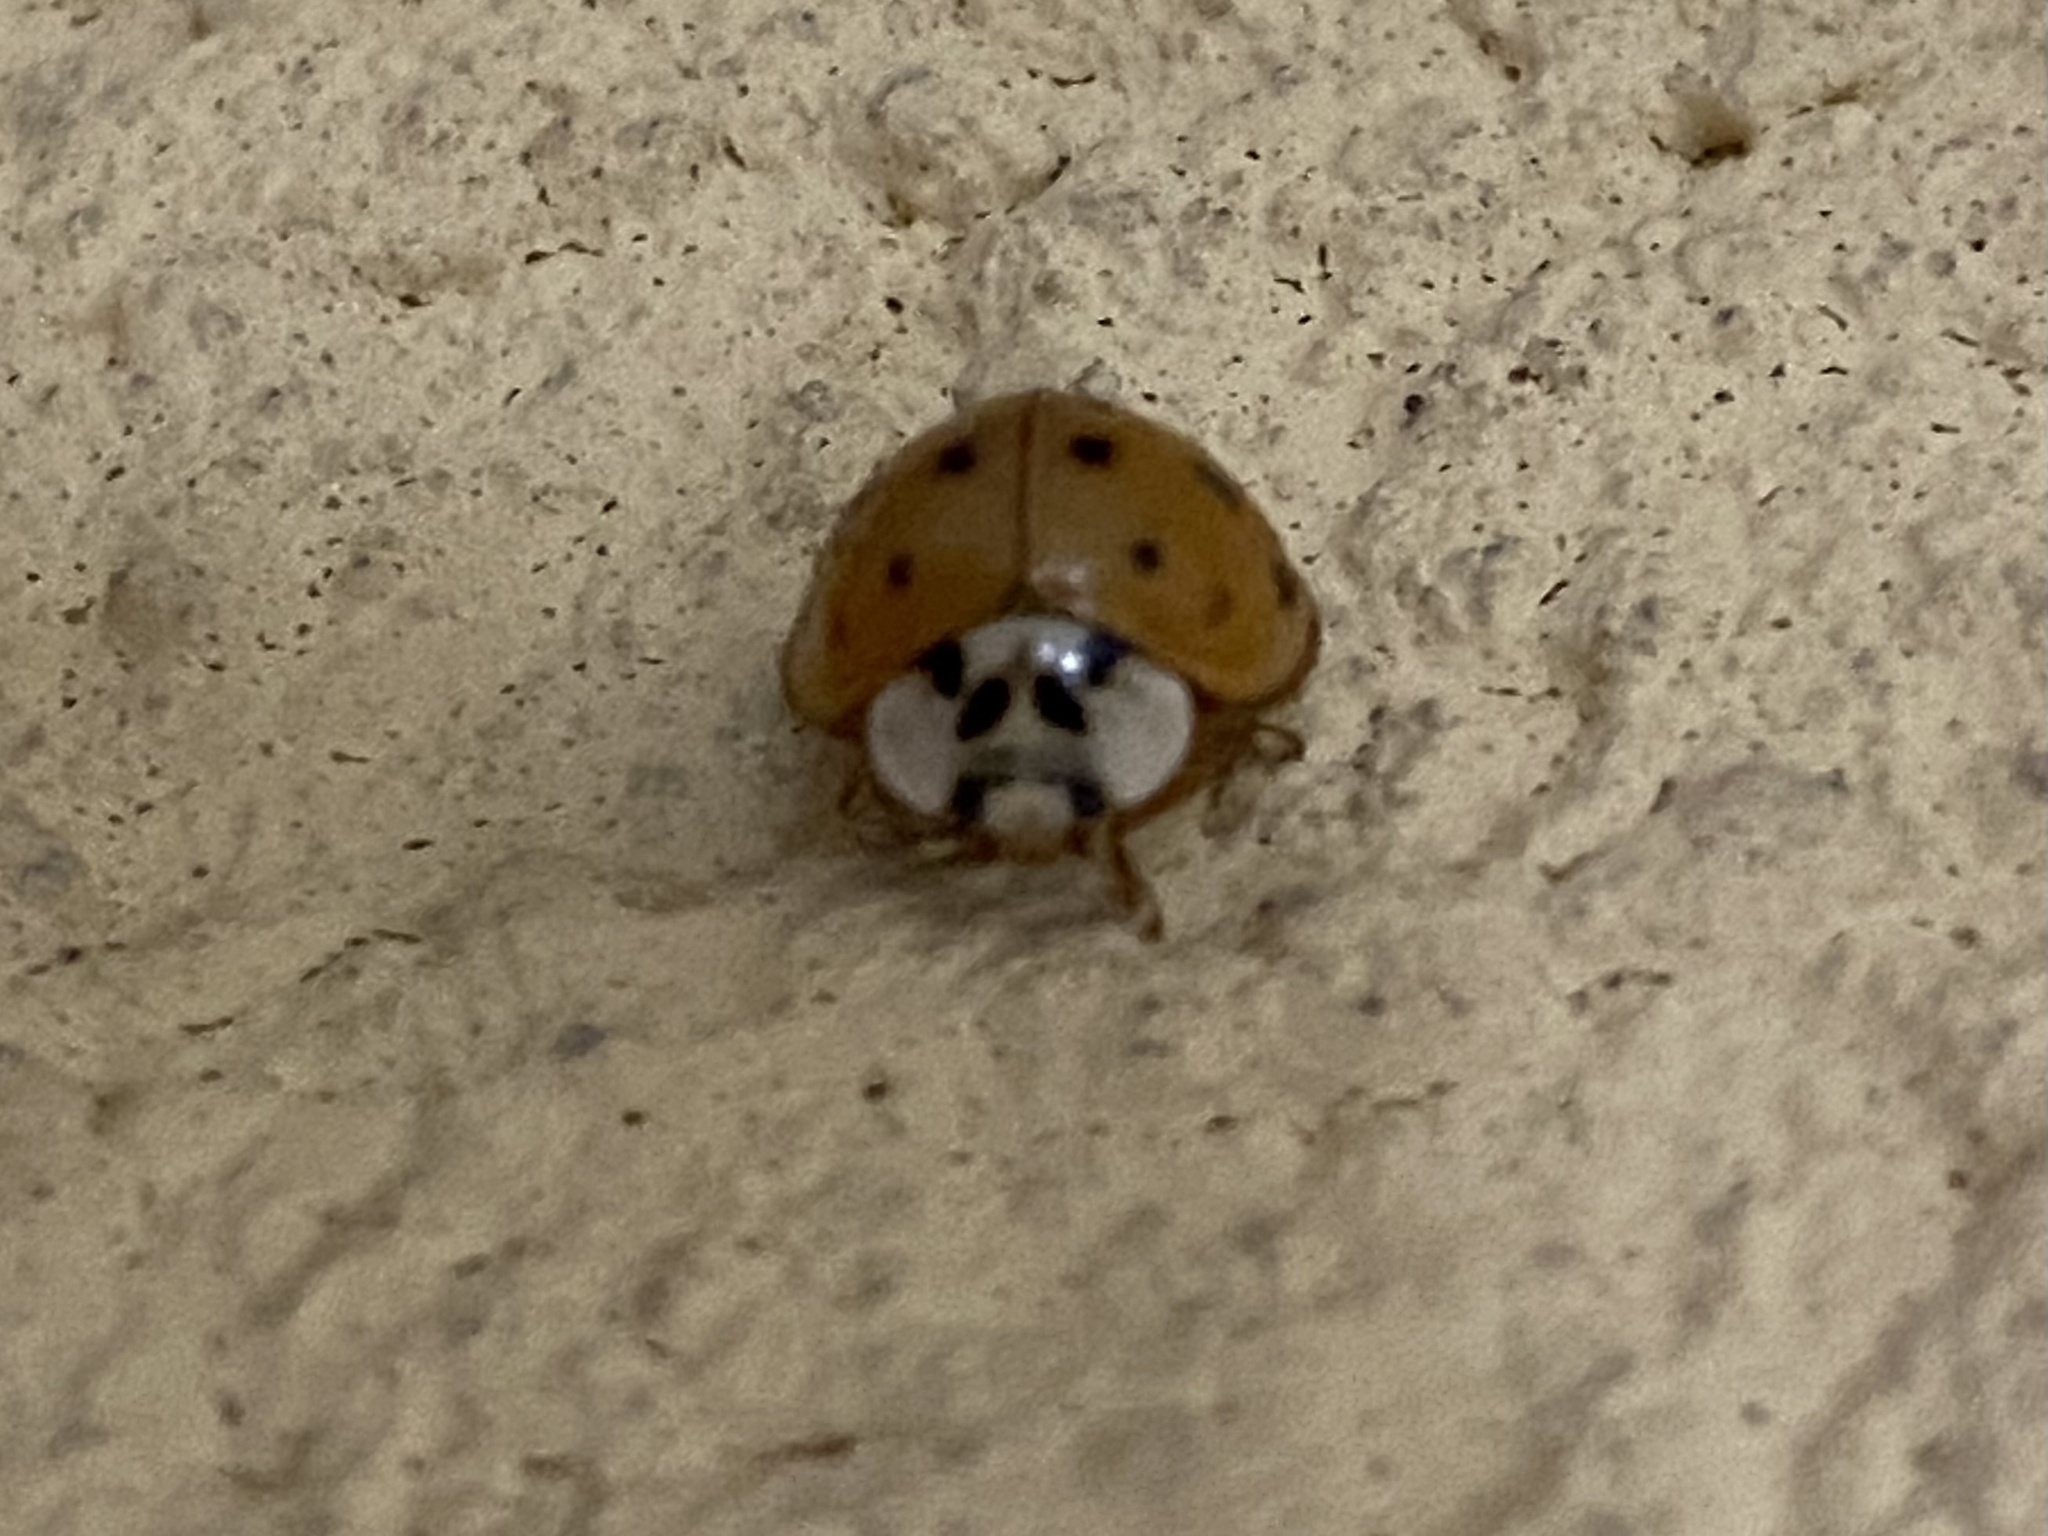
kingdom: Animalia
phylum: Arthropoda
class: Insecta
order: Coleoptera
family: Coccinellidae
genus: Harmonia
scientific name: Harmonia axyridis
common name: Harlequin ladybird
